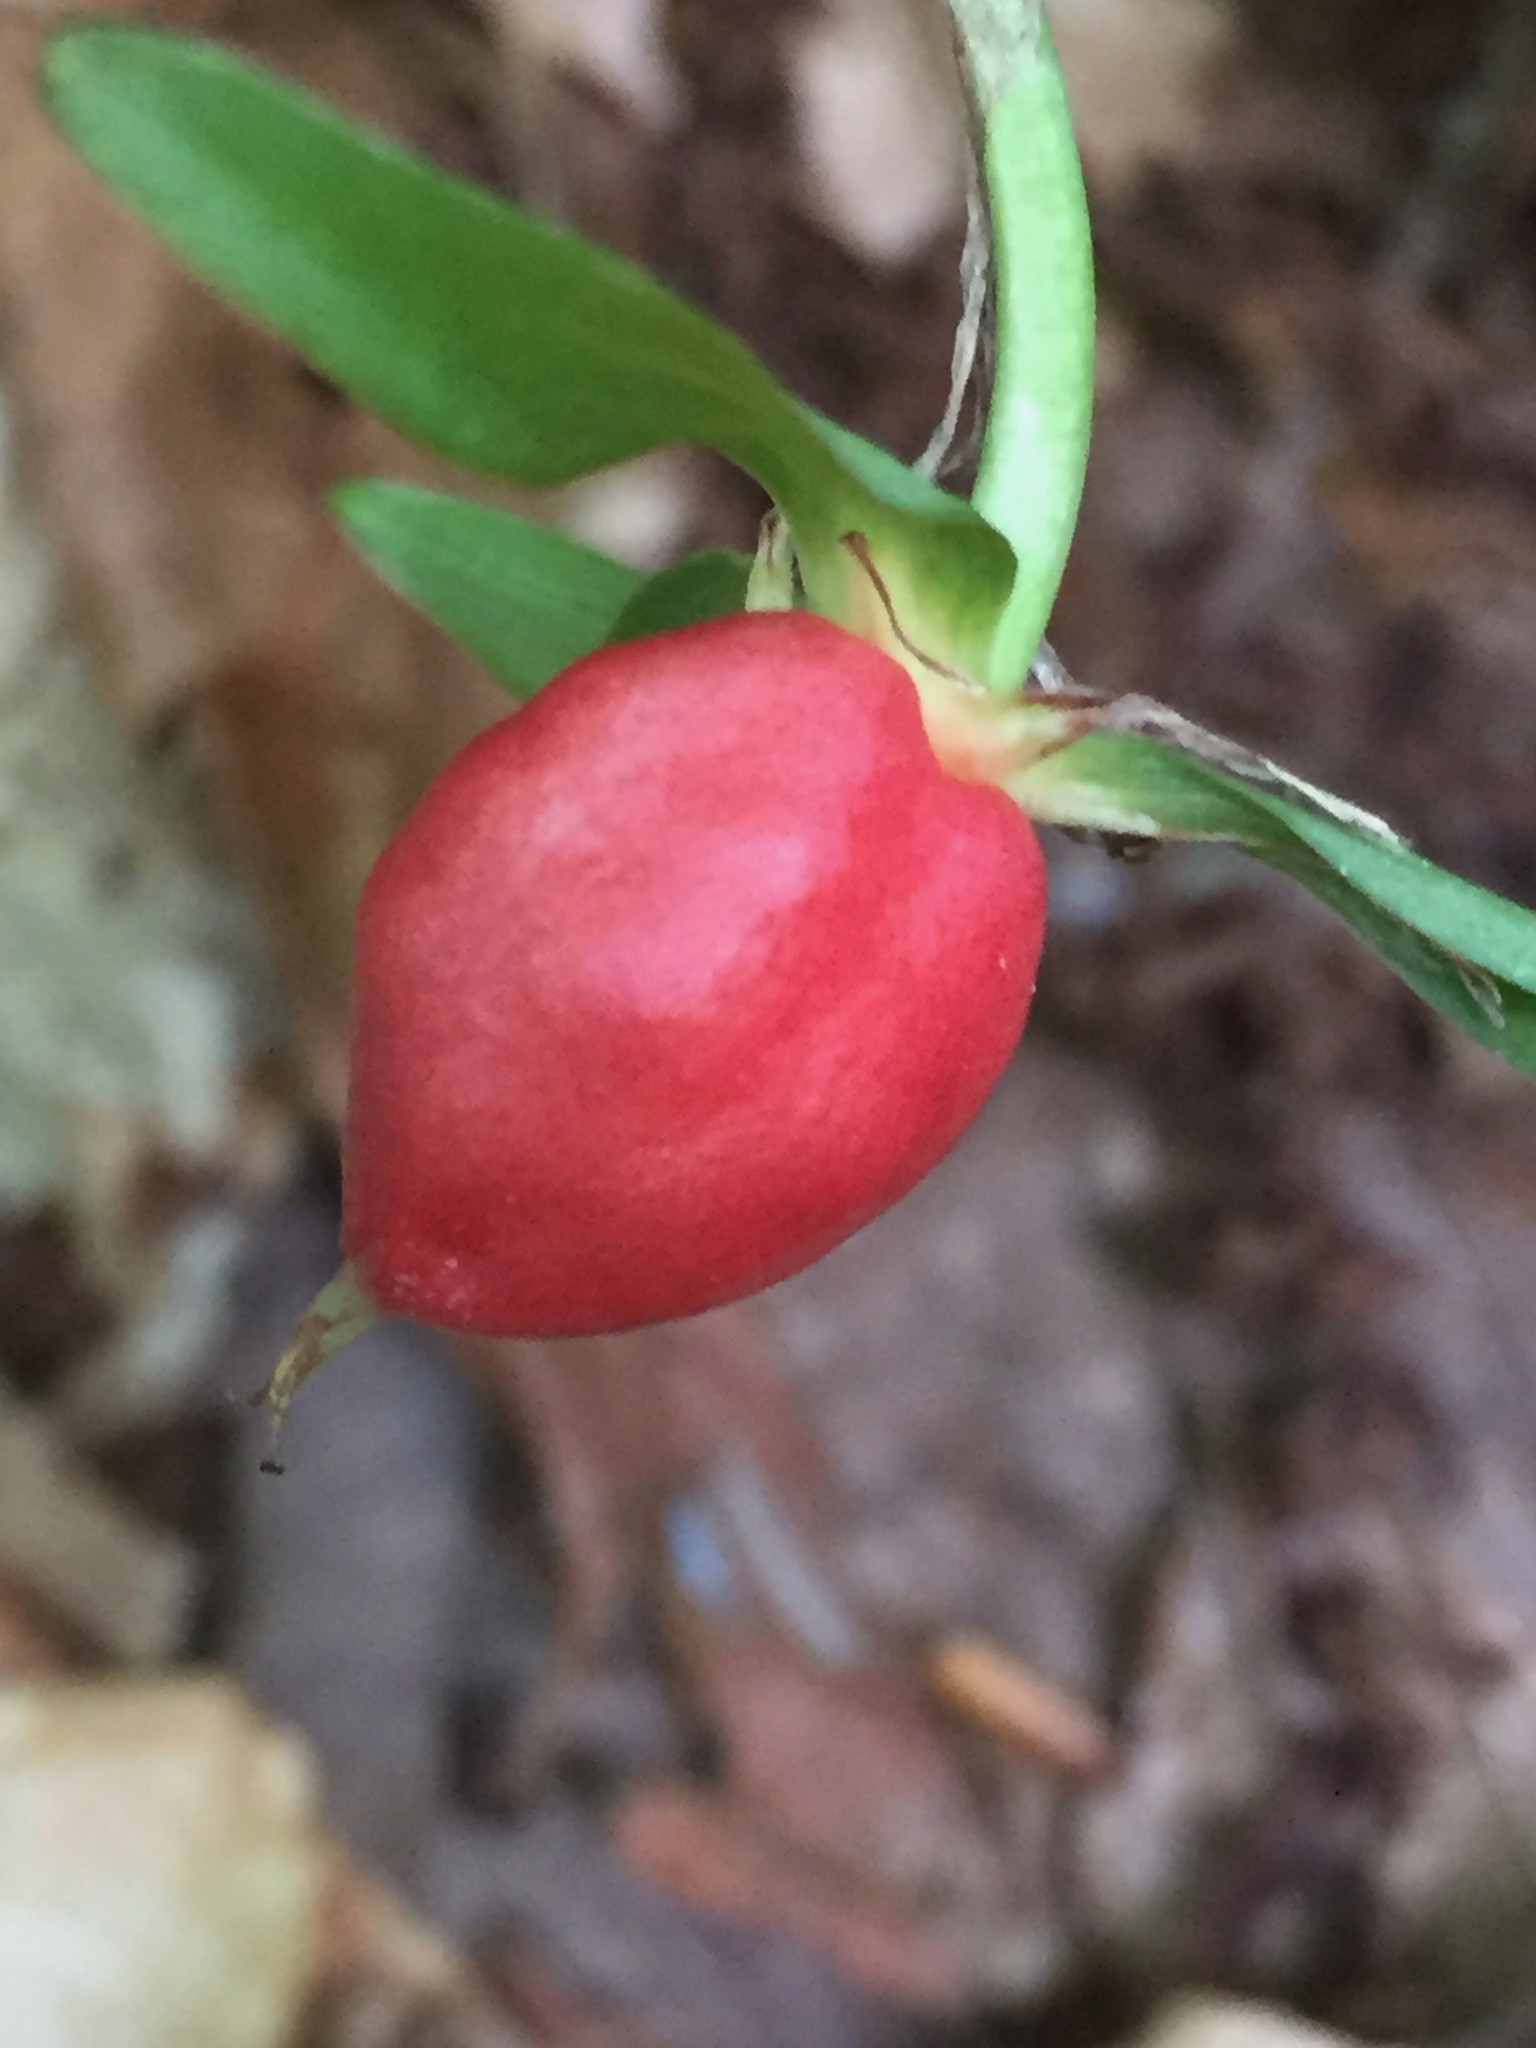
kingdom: Plantae
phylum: Tracheophyta
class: Liliopsida
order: Liliales
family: Melanthiaceae
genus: Trillium
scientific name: Trillium undulatum
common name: Paint trillium
